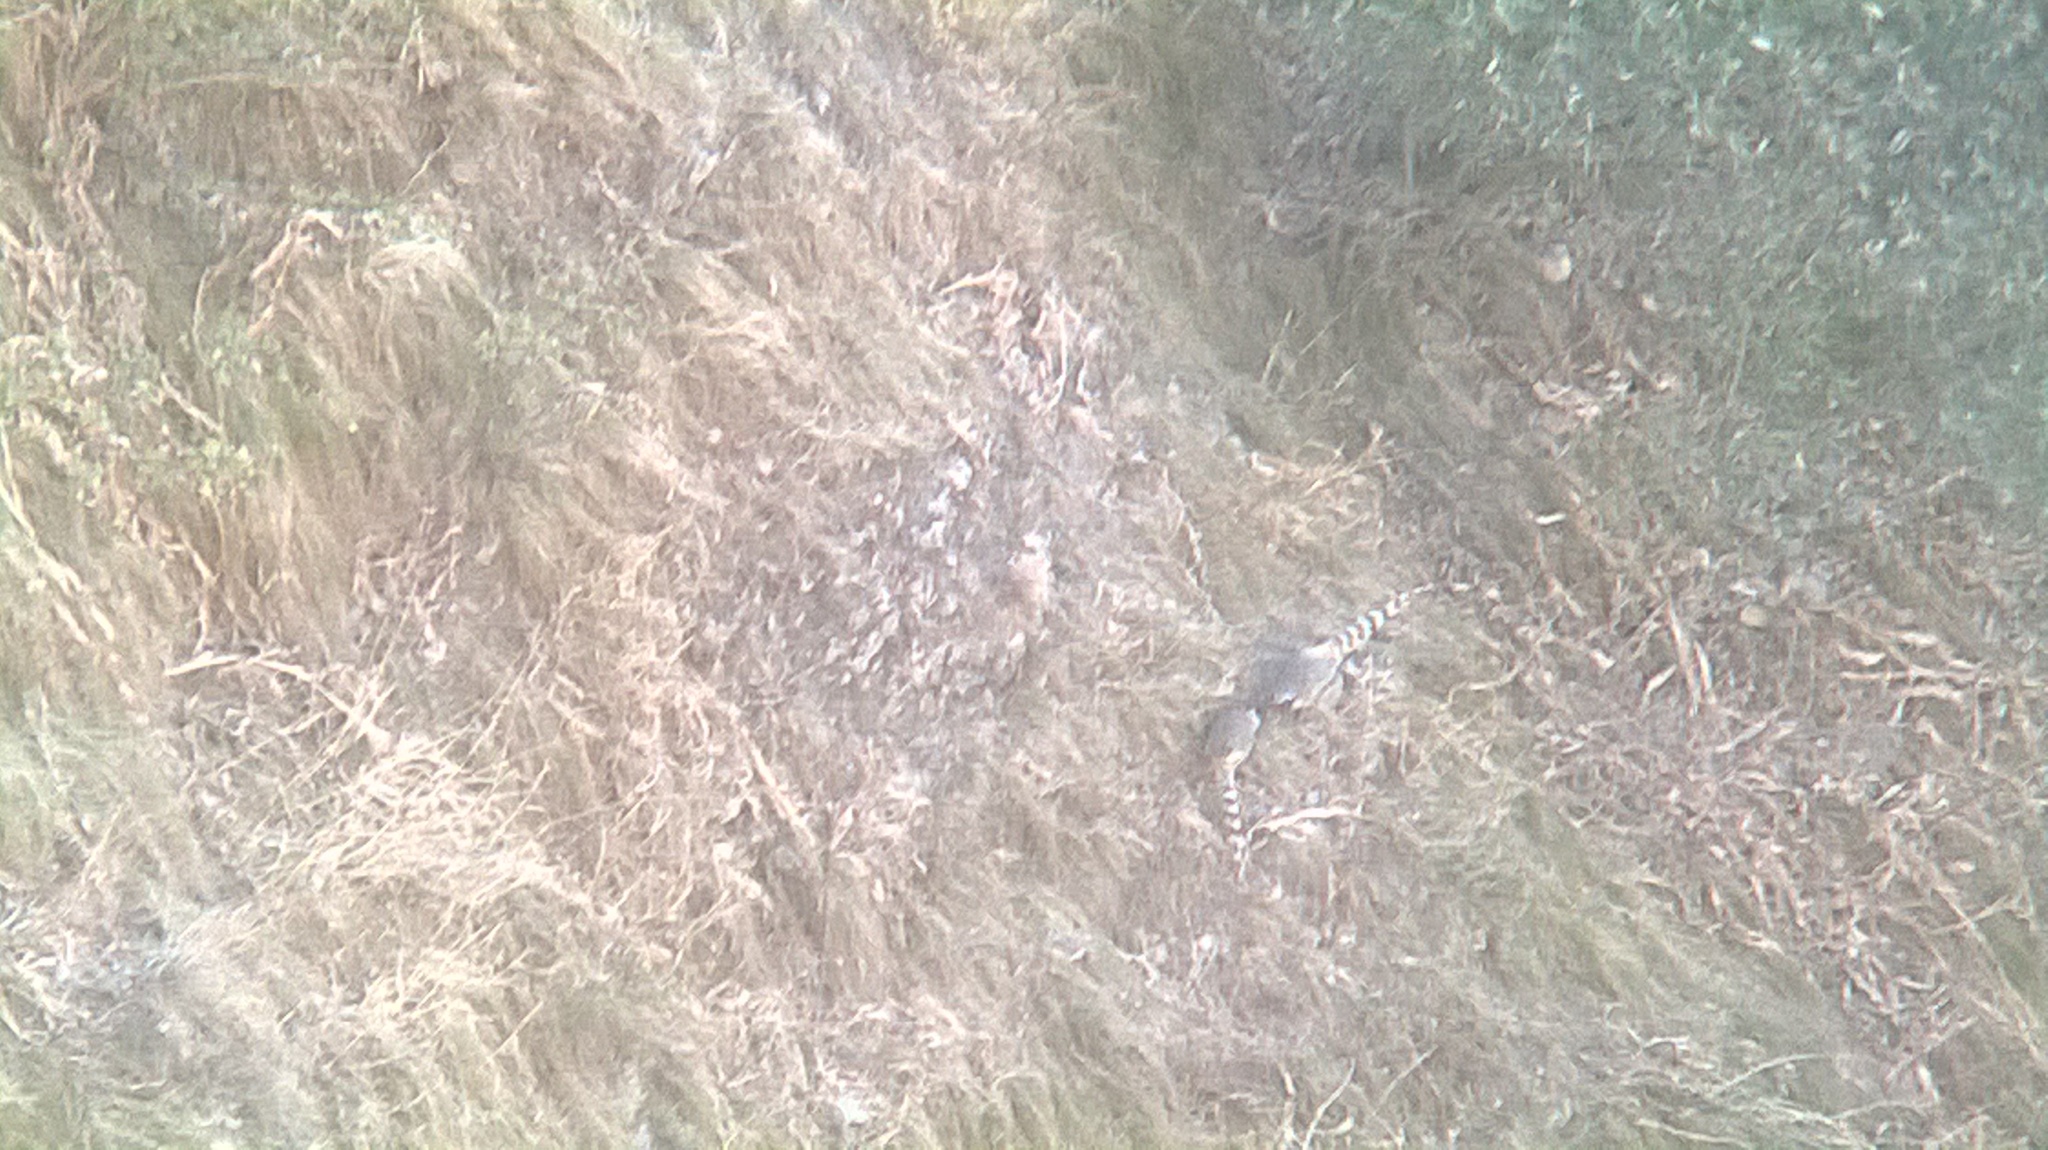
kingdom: Animalia
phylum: Chordata
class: Aves
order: Galliformes
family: Phasianidae
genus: Catreus
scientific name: Catreus wallichii
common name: Cheer pheasant
